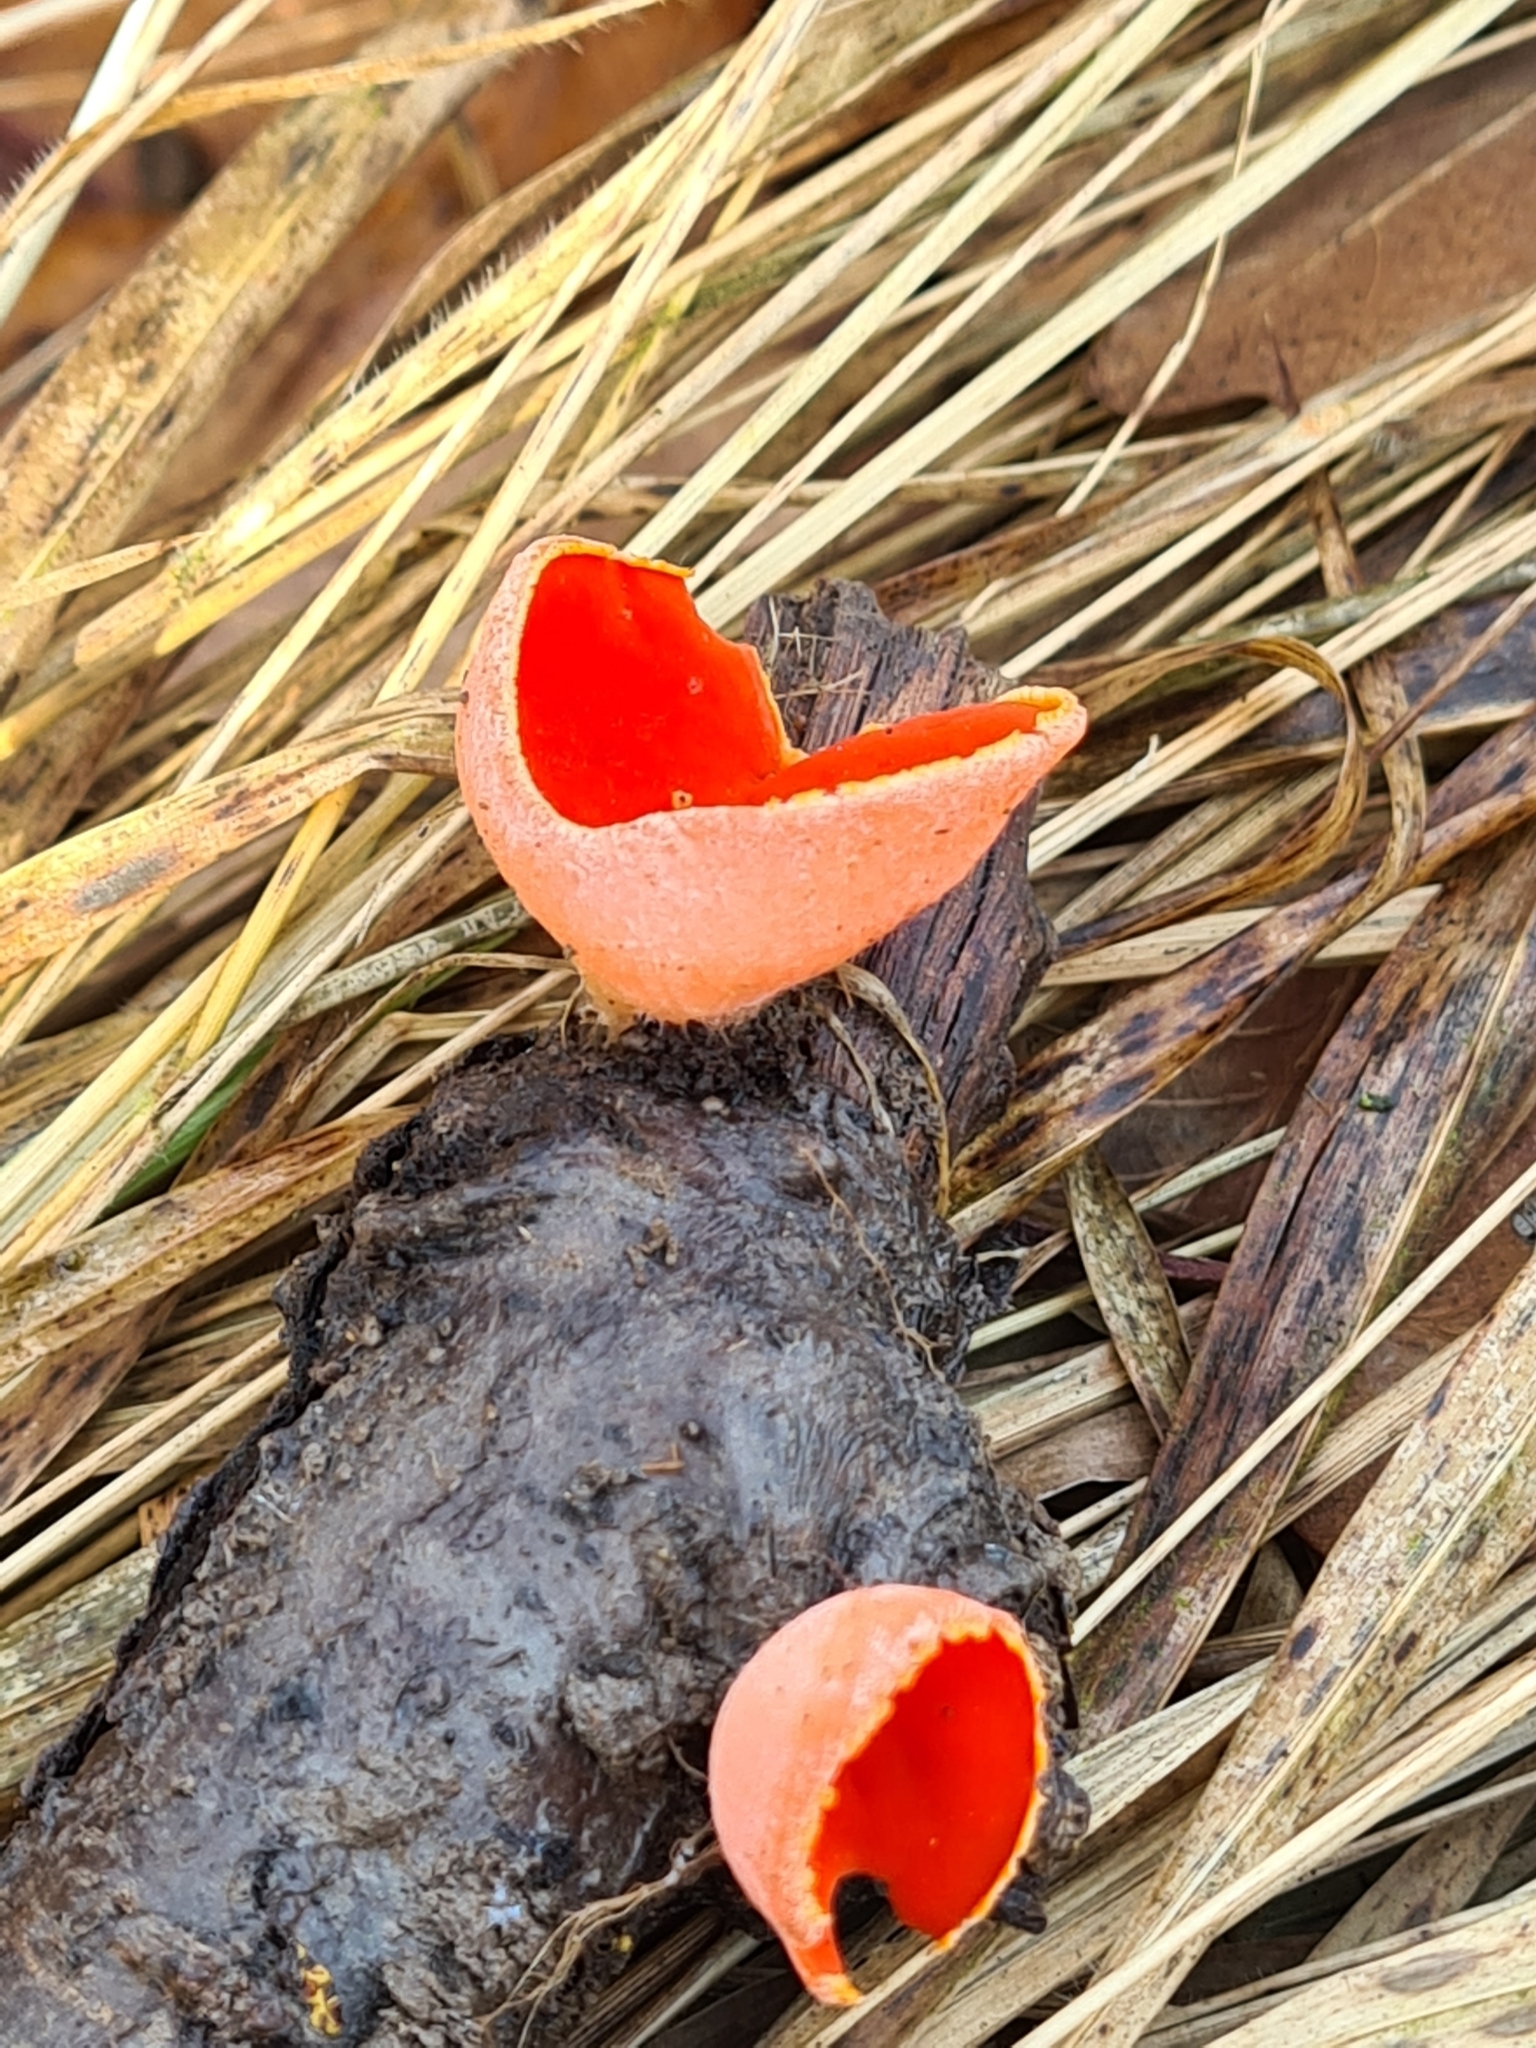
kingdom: Fungi
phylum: Ascomycota
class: Pezizomycetes
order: Pezizales
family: Sarcoscyphaceae
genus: Sarcoscypha
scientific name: Sarcoscypha
